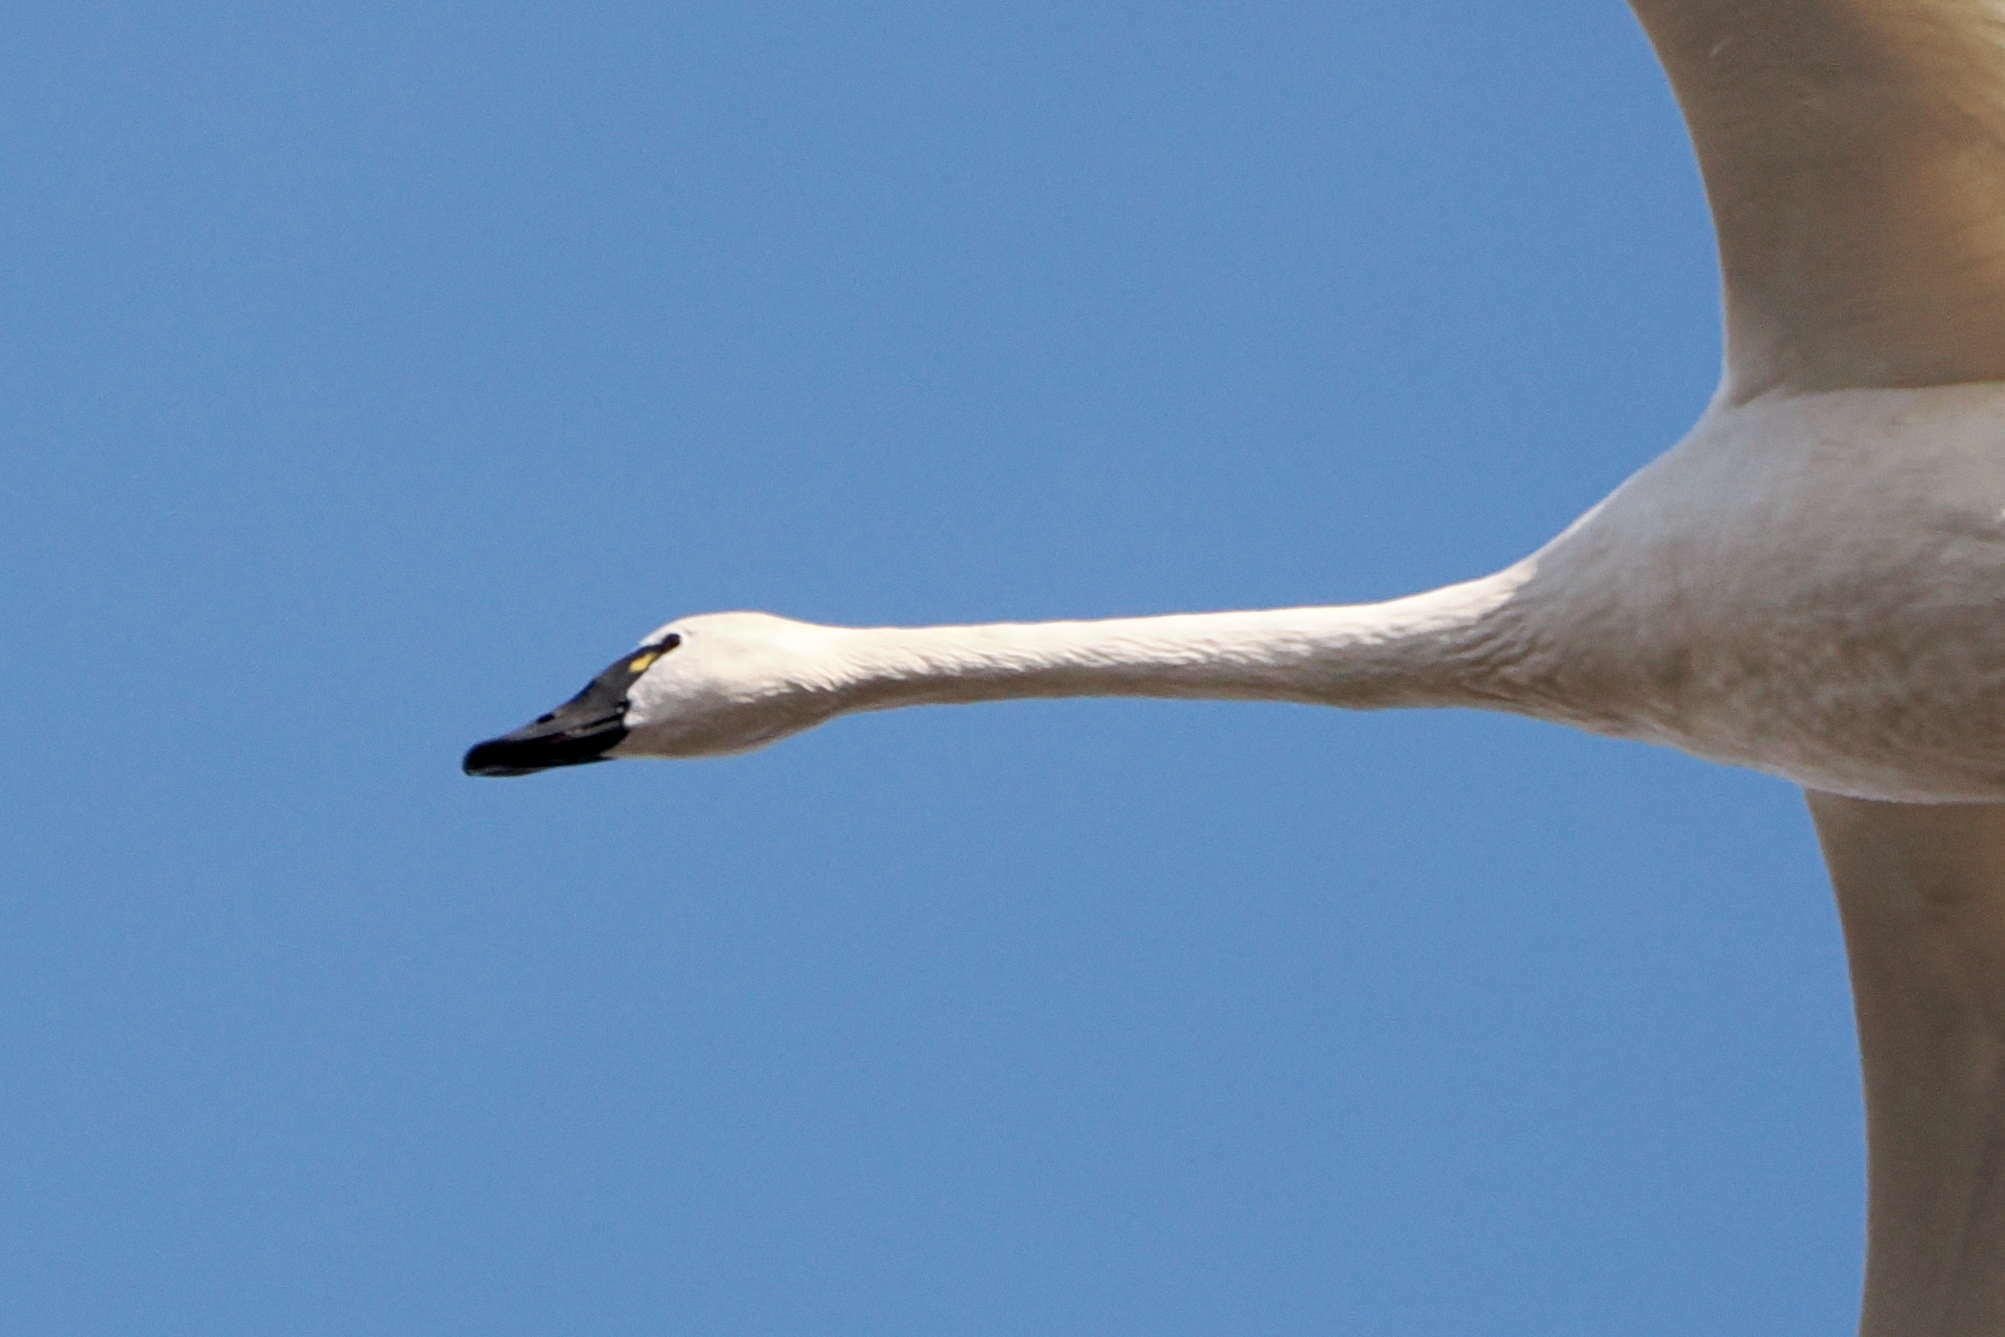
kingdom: Animalia
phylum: Chordata
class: Aves
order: Anseriformes
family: Anatidae
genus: Cygnus
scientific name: Cygnus columbianus
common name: Tundra swan
